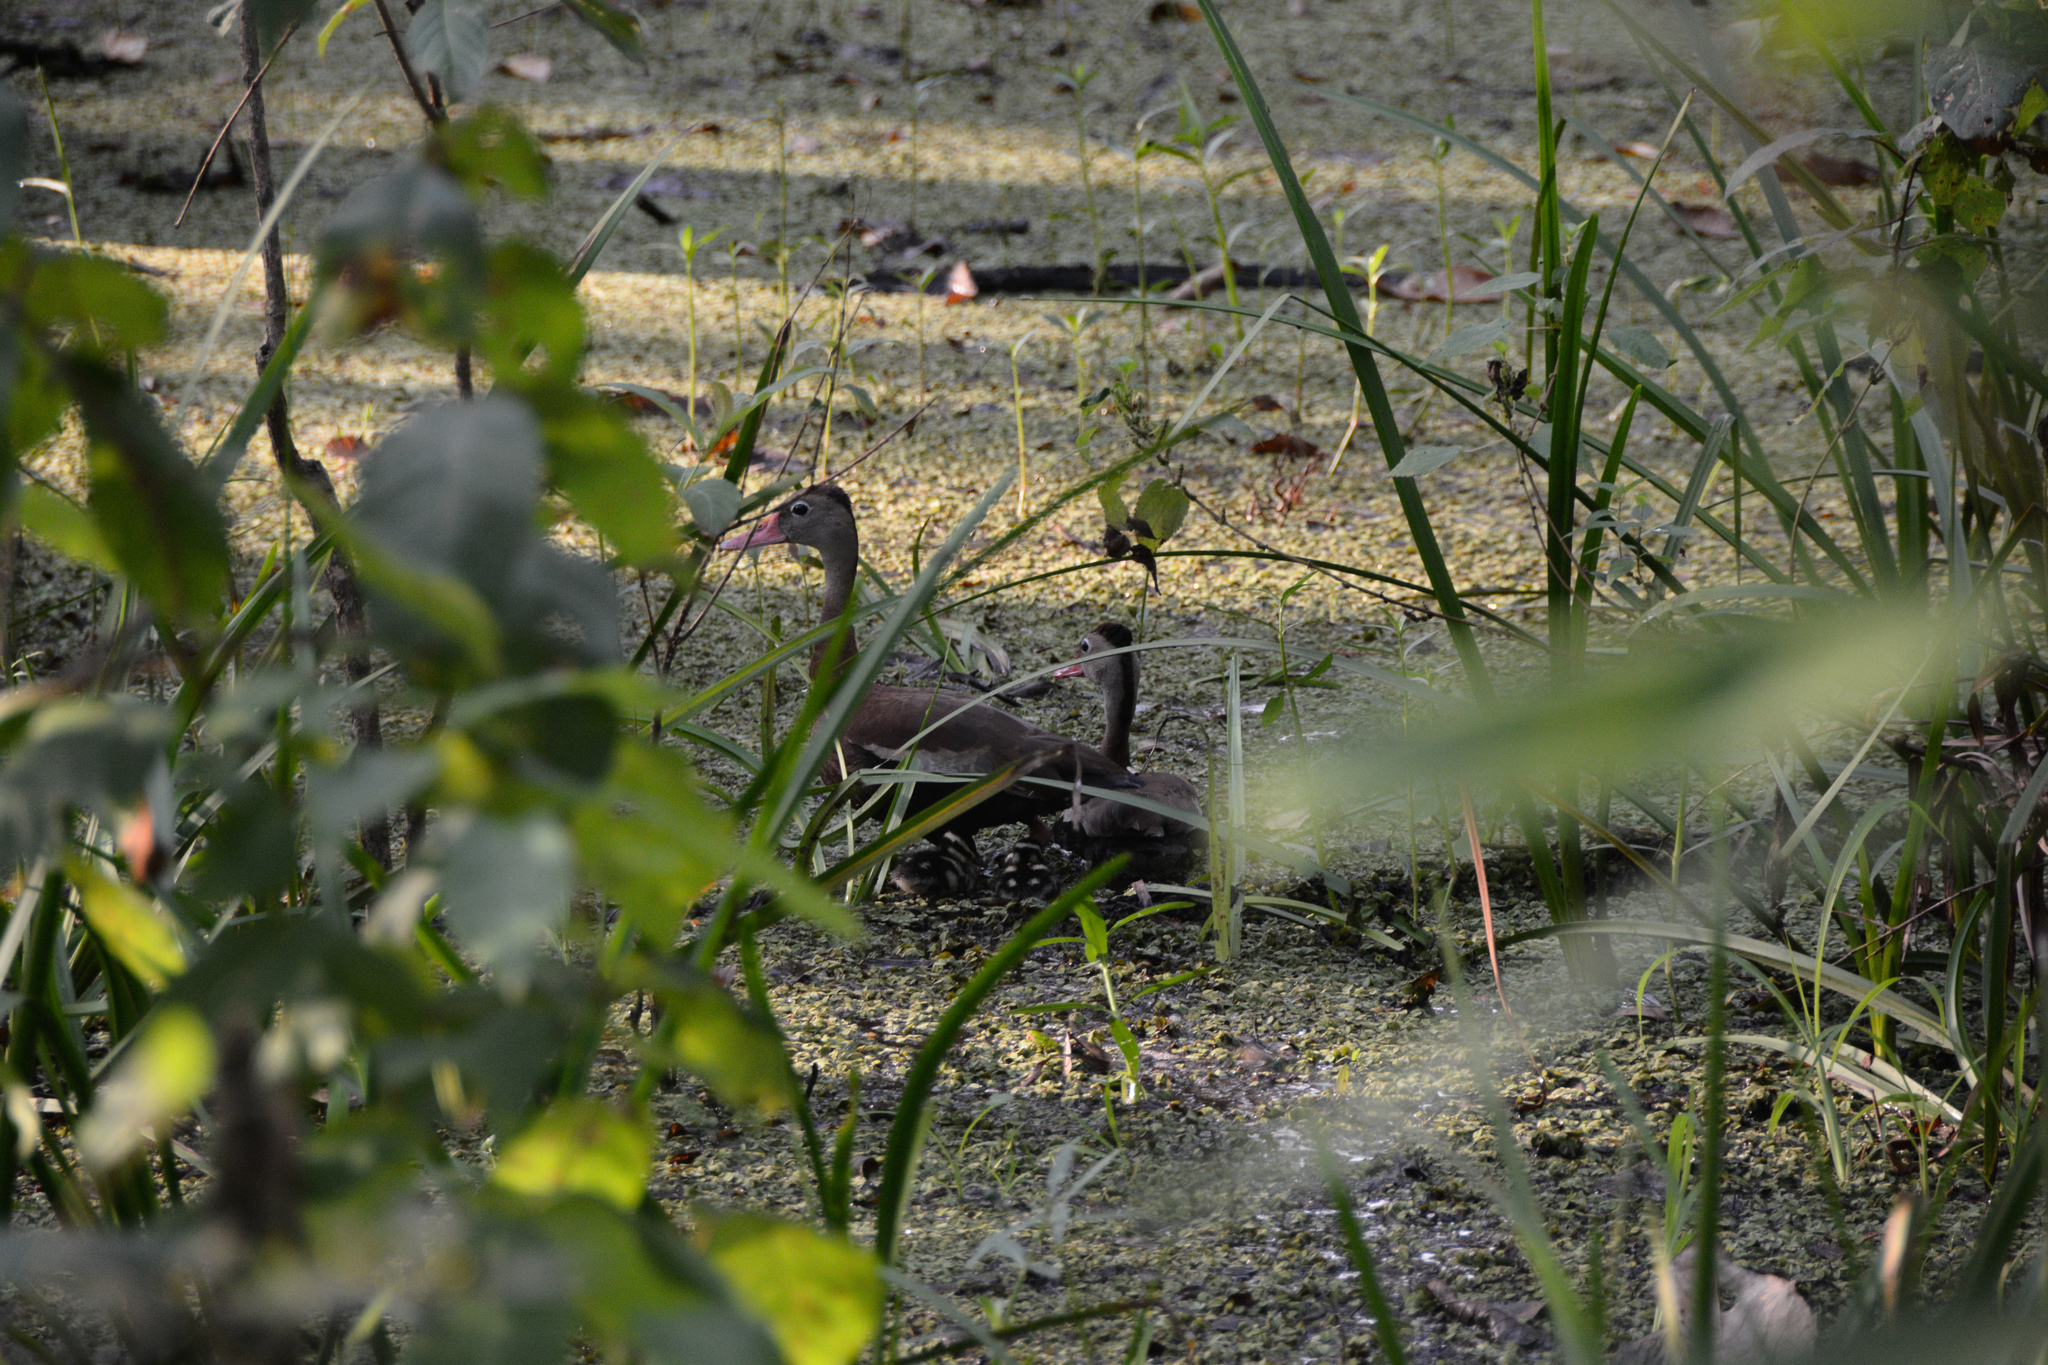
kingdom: Animalia
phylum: Chordata
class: Aves
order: Anseriformes
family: Anatidae
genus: Dendrocygna
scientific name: Dendrocygna autumnalis
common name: Black-bellied whistling duck
